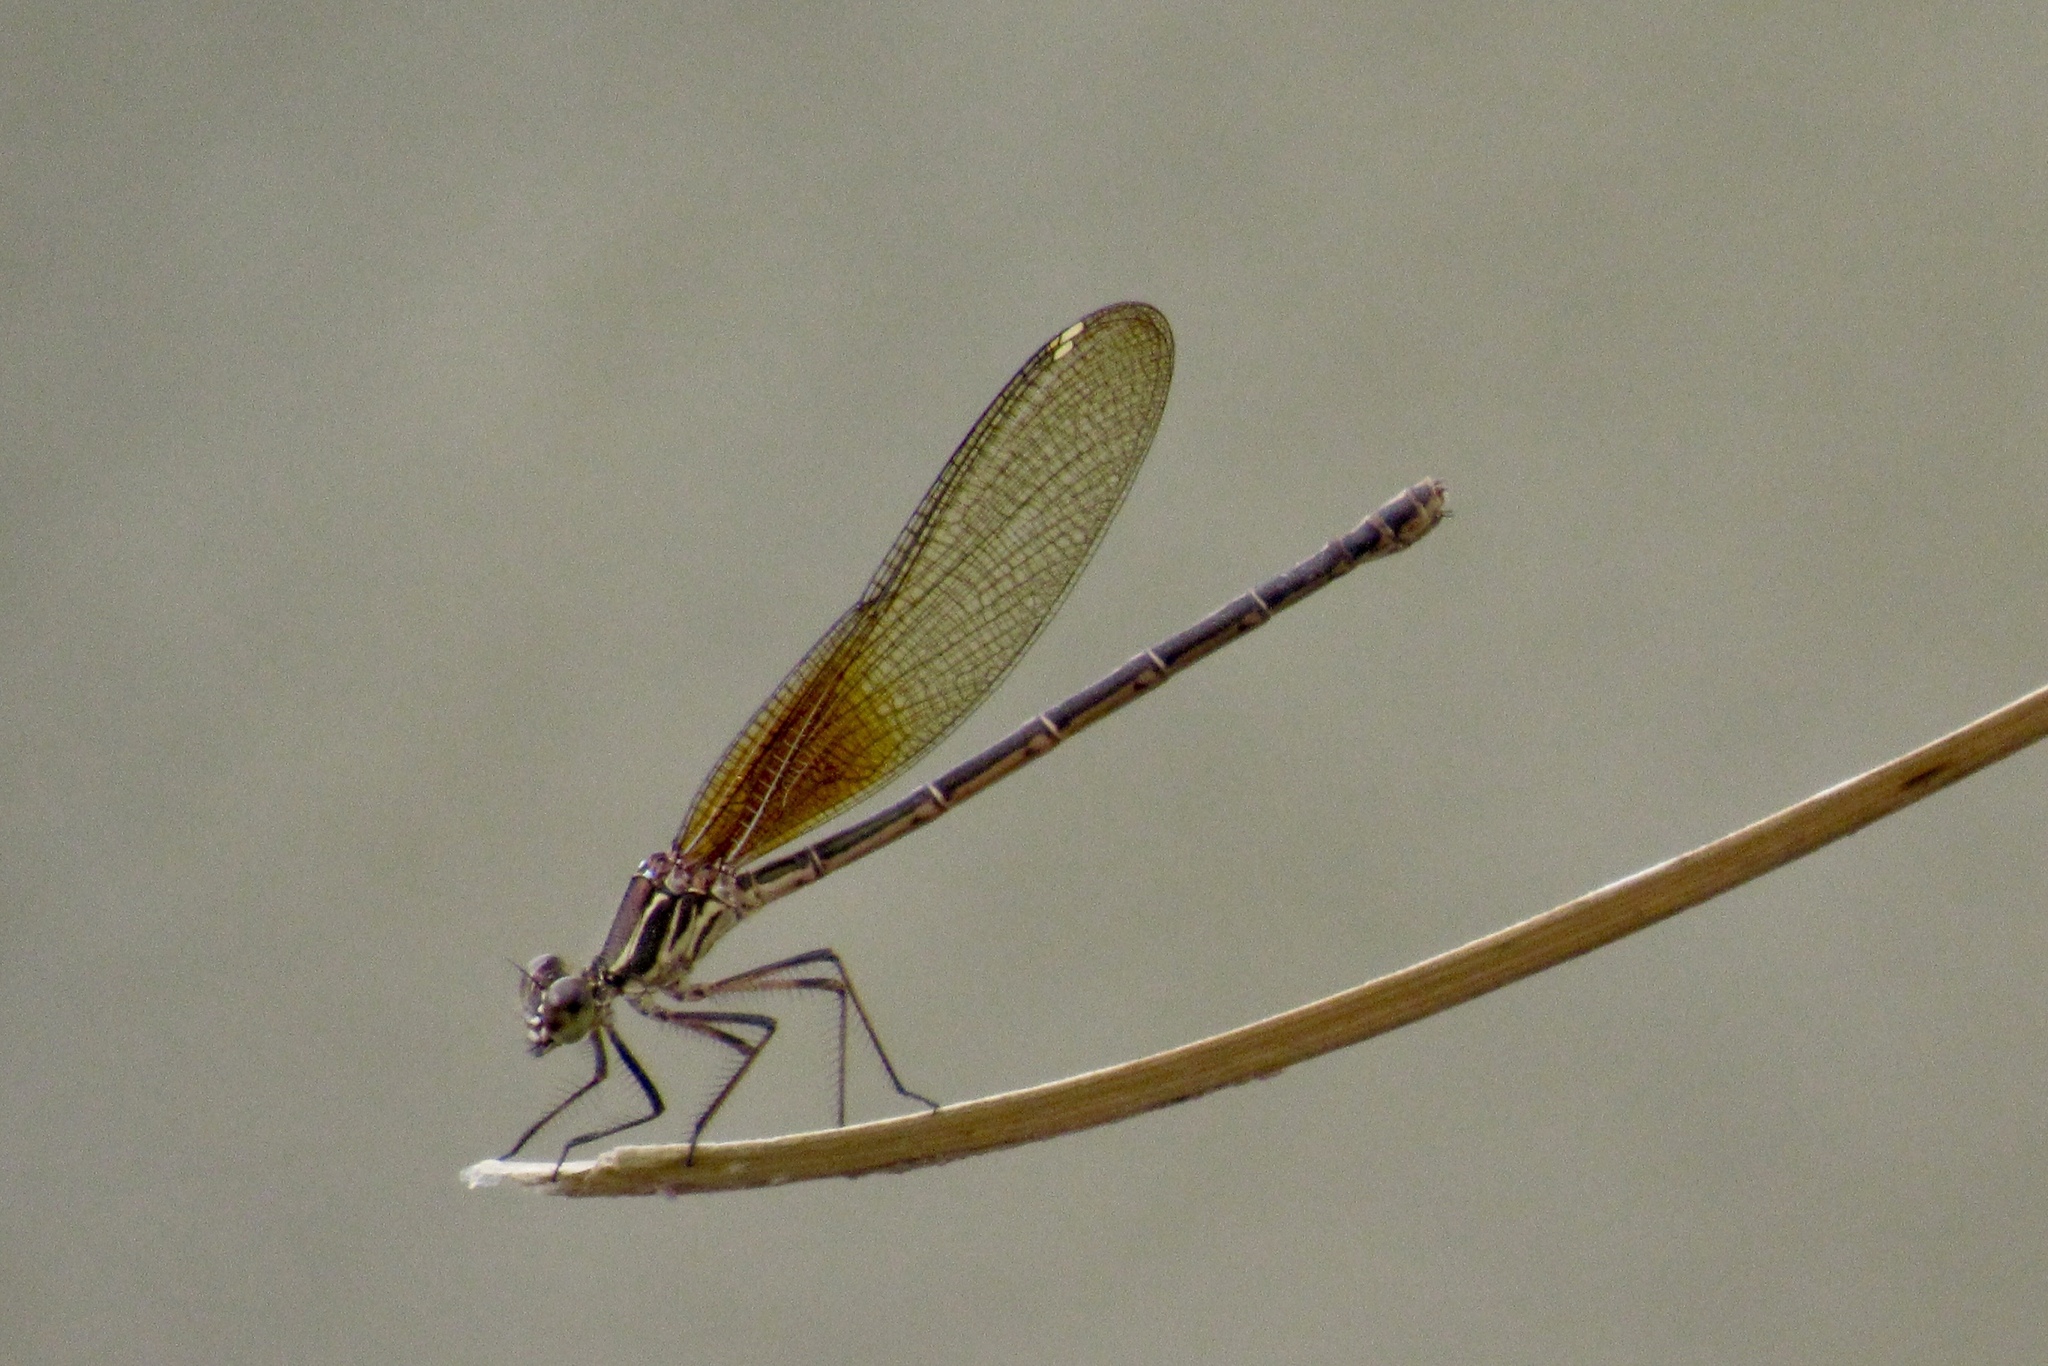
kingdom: Animalia
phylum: Arthropoda
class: Insecta
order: Odonata
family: Calopterygidae
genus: Hetaerina
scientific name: Hetaerina americana
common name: American rubyspot
